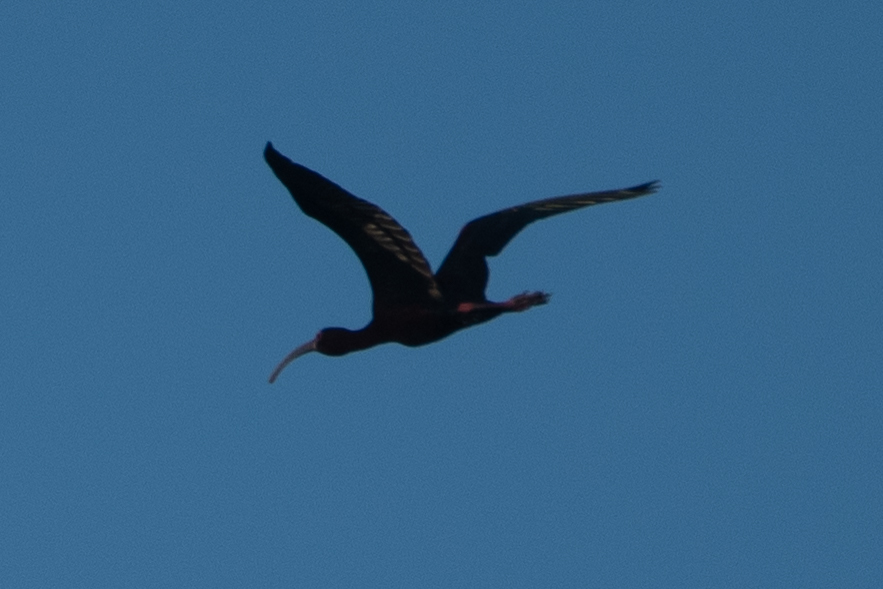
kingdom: Animalia
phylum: Chordata
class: Aves
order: Pelecaniformes
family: Threskiornithidae
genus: Plegadis
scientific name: Plegadis chihi
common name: White-faced ibis
